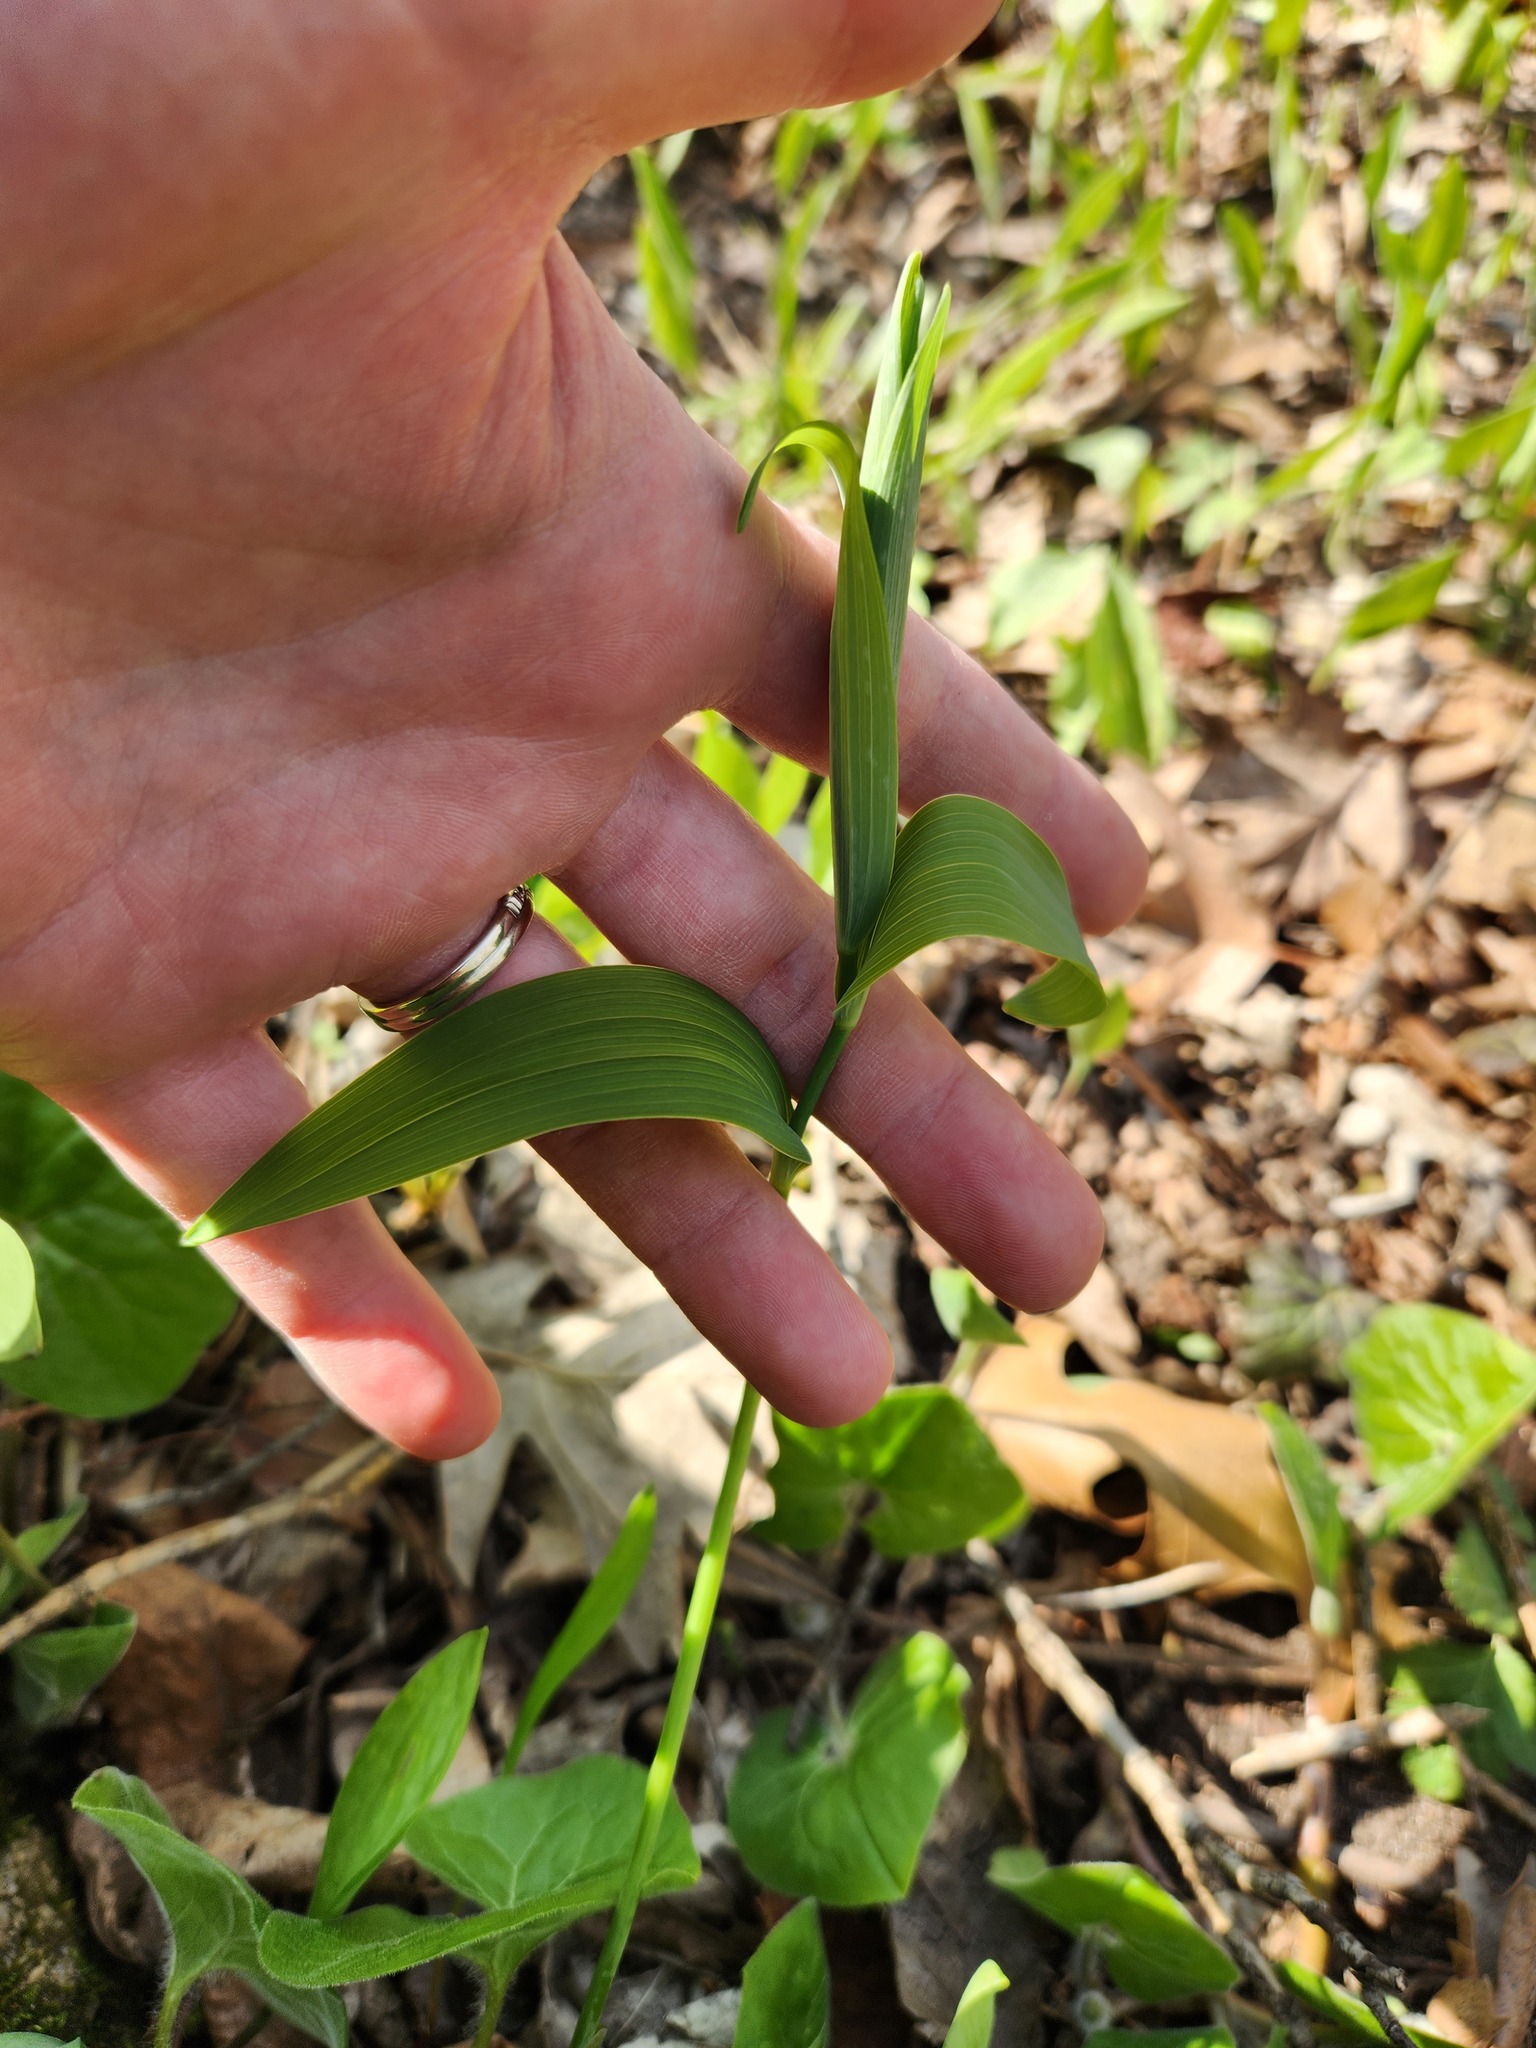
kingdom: Plantae
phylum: Tracheophyta
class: Liliopsida
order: Asparagales
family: Asparagaceae
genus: Polygonatum
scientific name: Polygonatum biflorum
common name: American solomon's-seal
